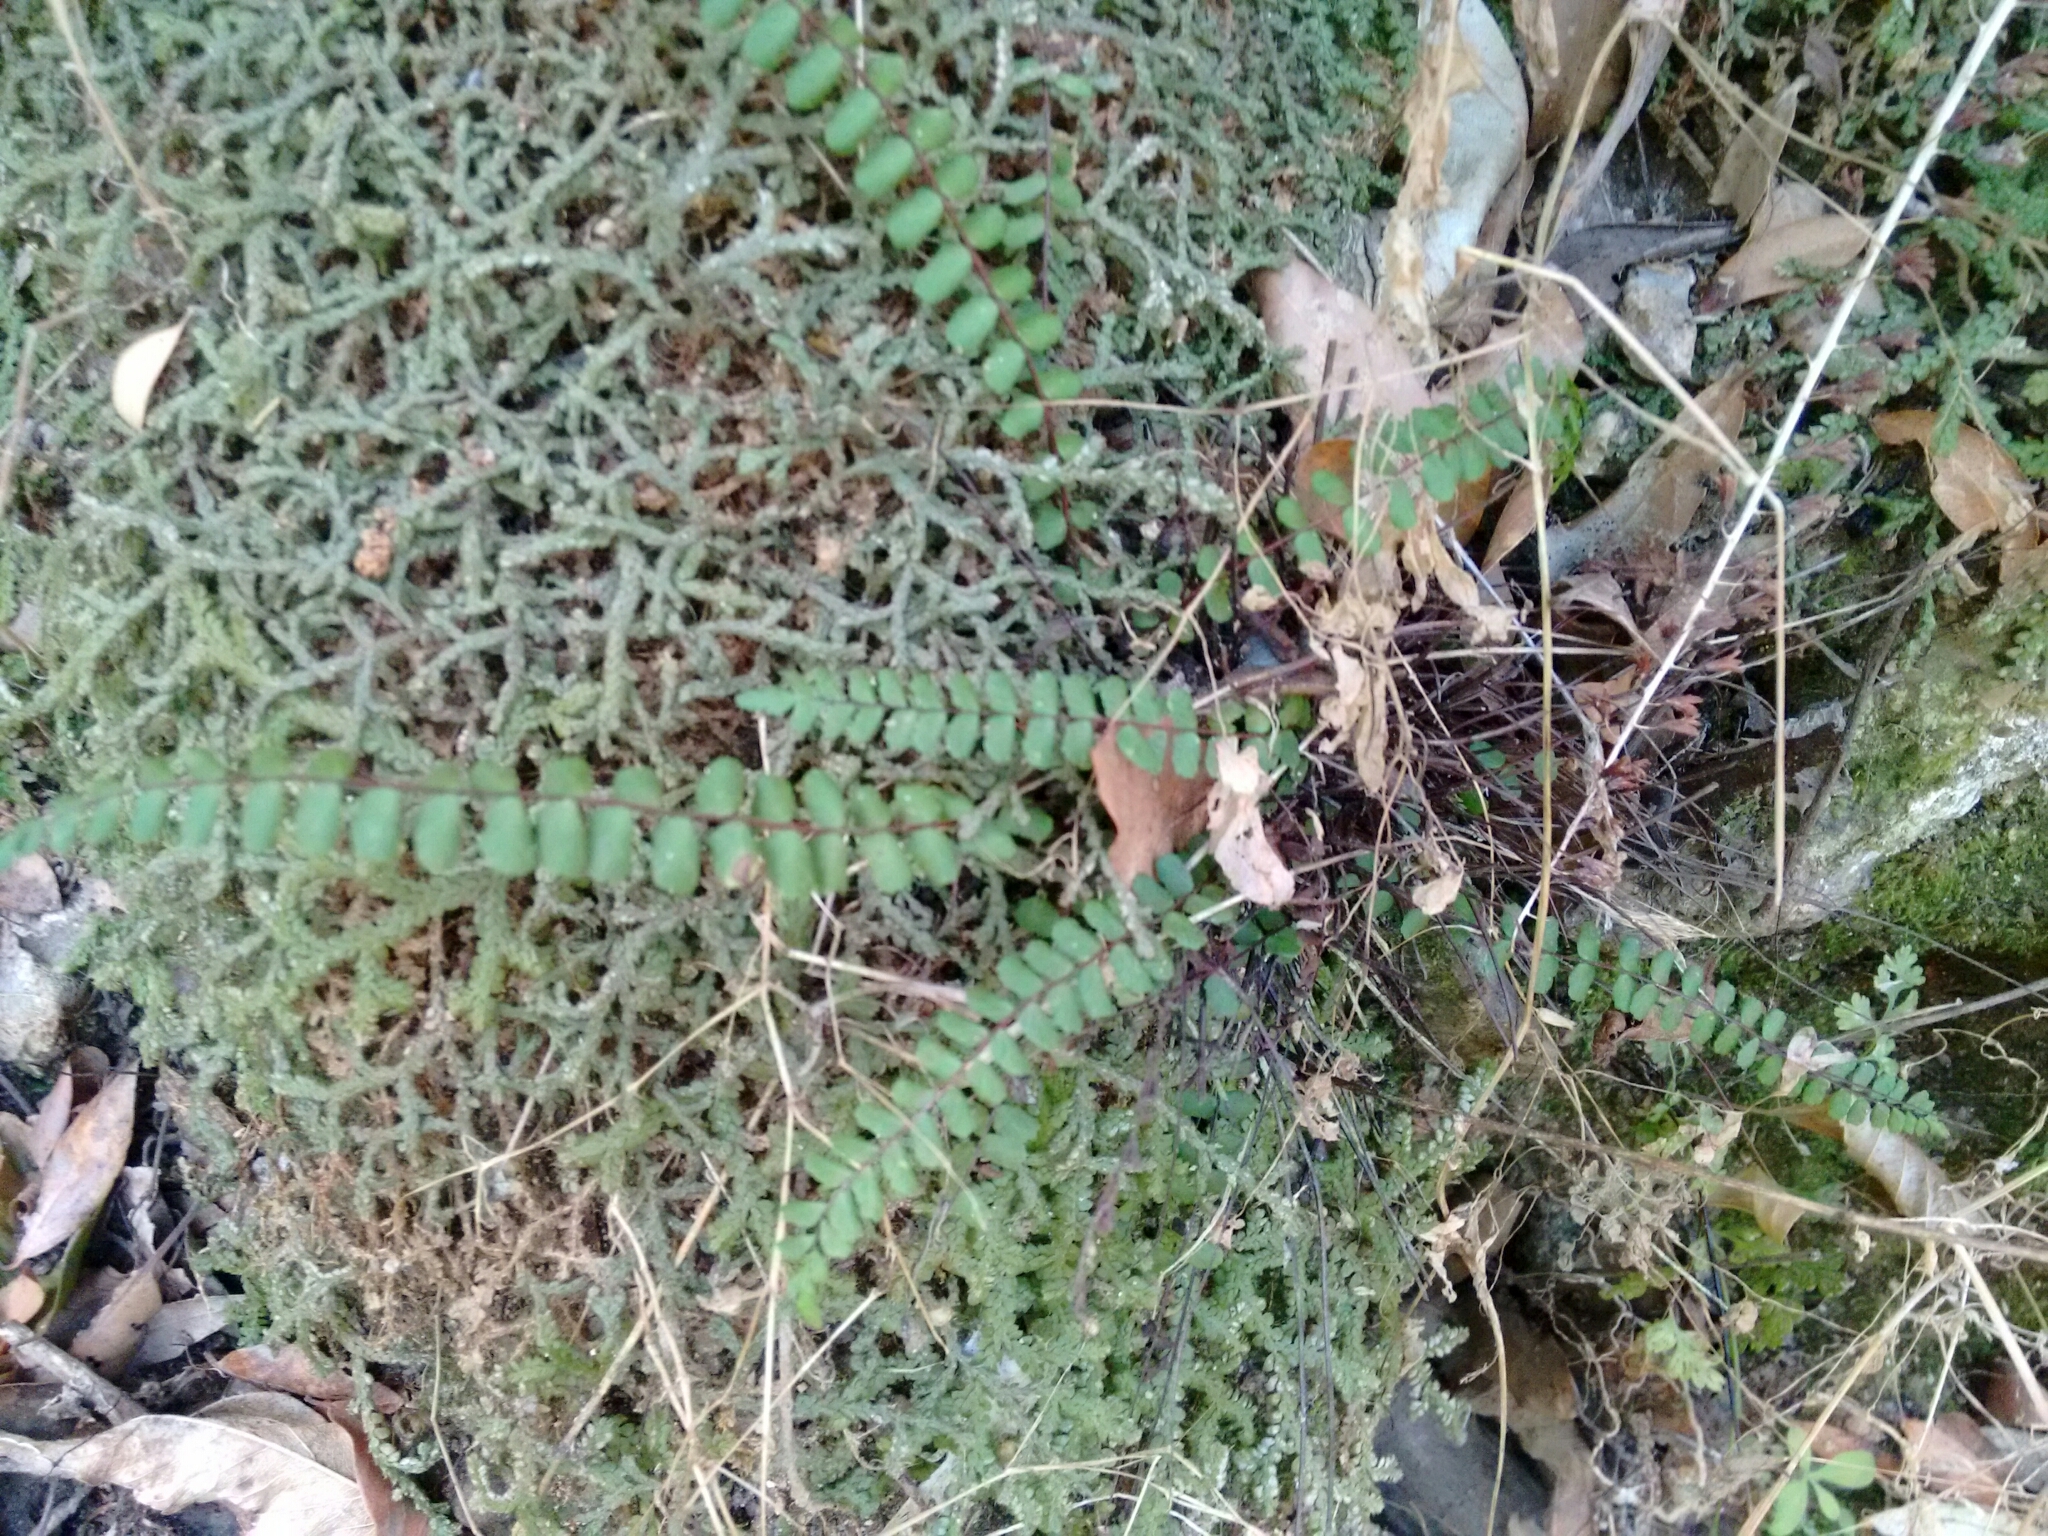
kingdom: Plantae
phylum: Tracheophyta
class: Polypodiopsida
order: Polypodiales
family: Aspleniaceae
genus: Asplenium
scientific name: Asplenium trichomanes
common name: Maidenhair spleenwort
